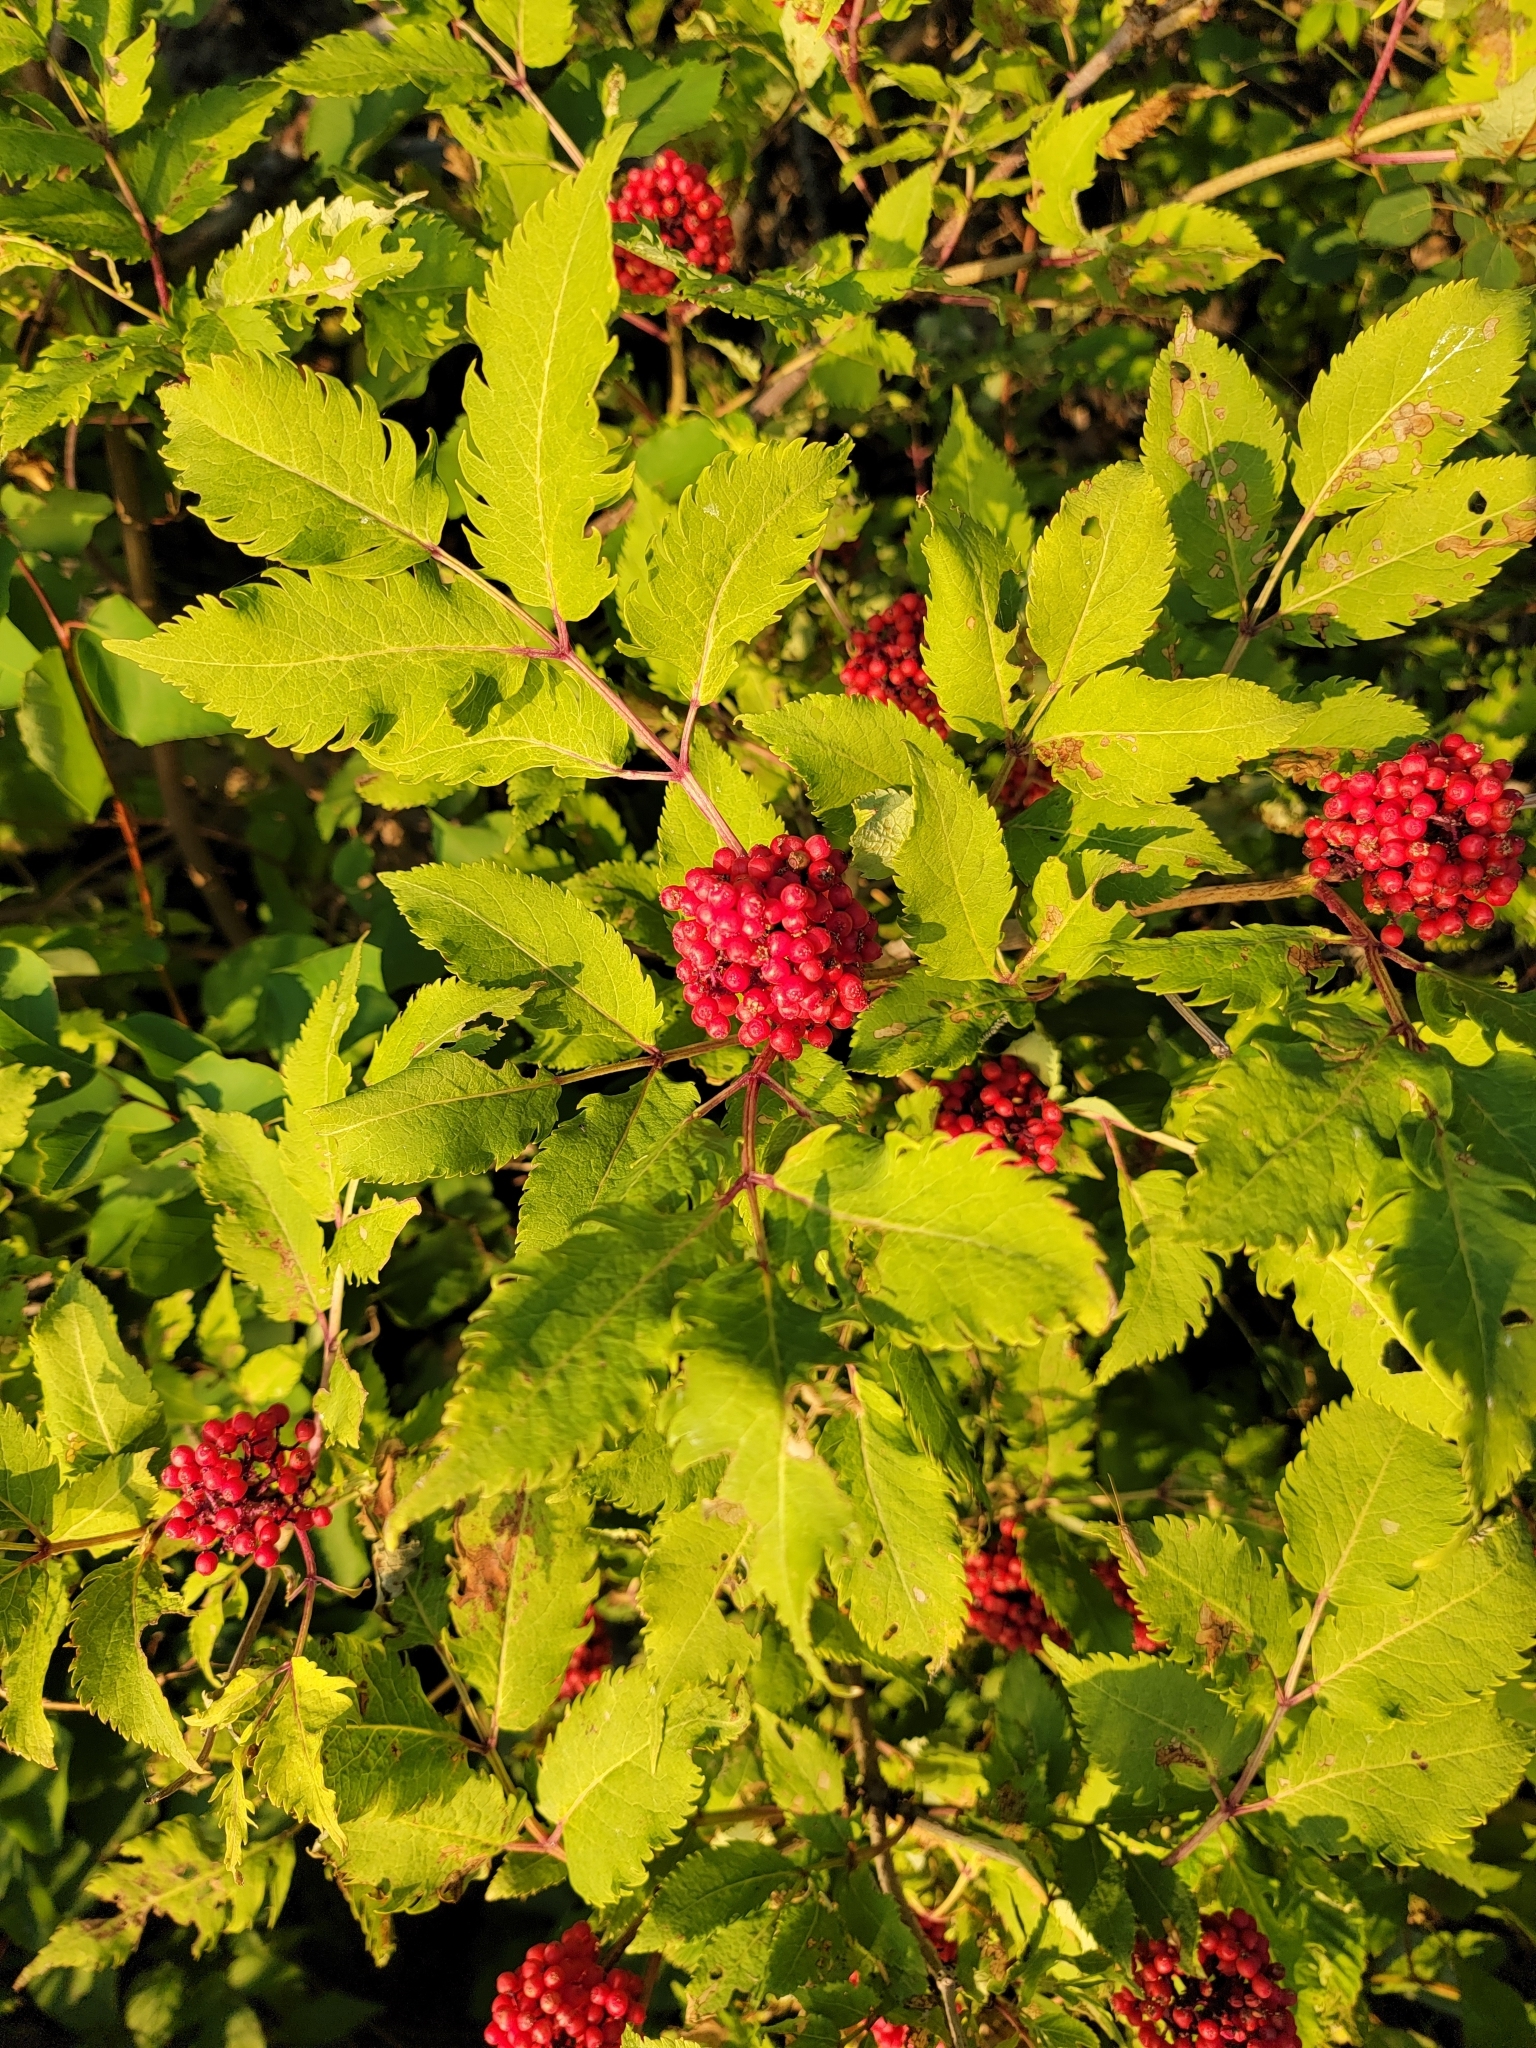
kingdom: Plantae
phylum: Tracheophyta
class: Magnoliopsida
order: Dipsacales
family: Viburnaceae
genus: Sambucus
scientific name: Sambucus racemosa
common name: Red-berried elder
